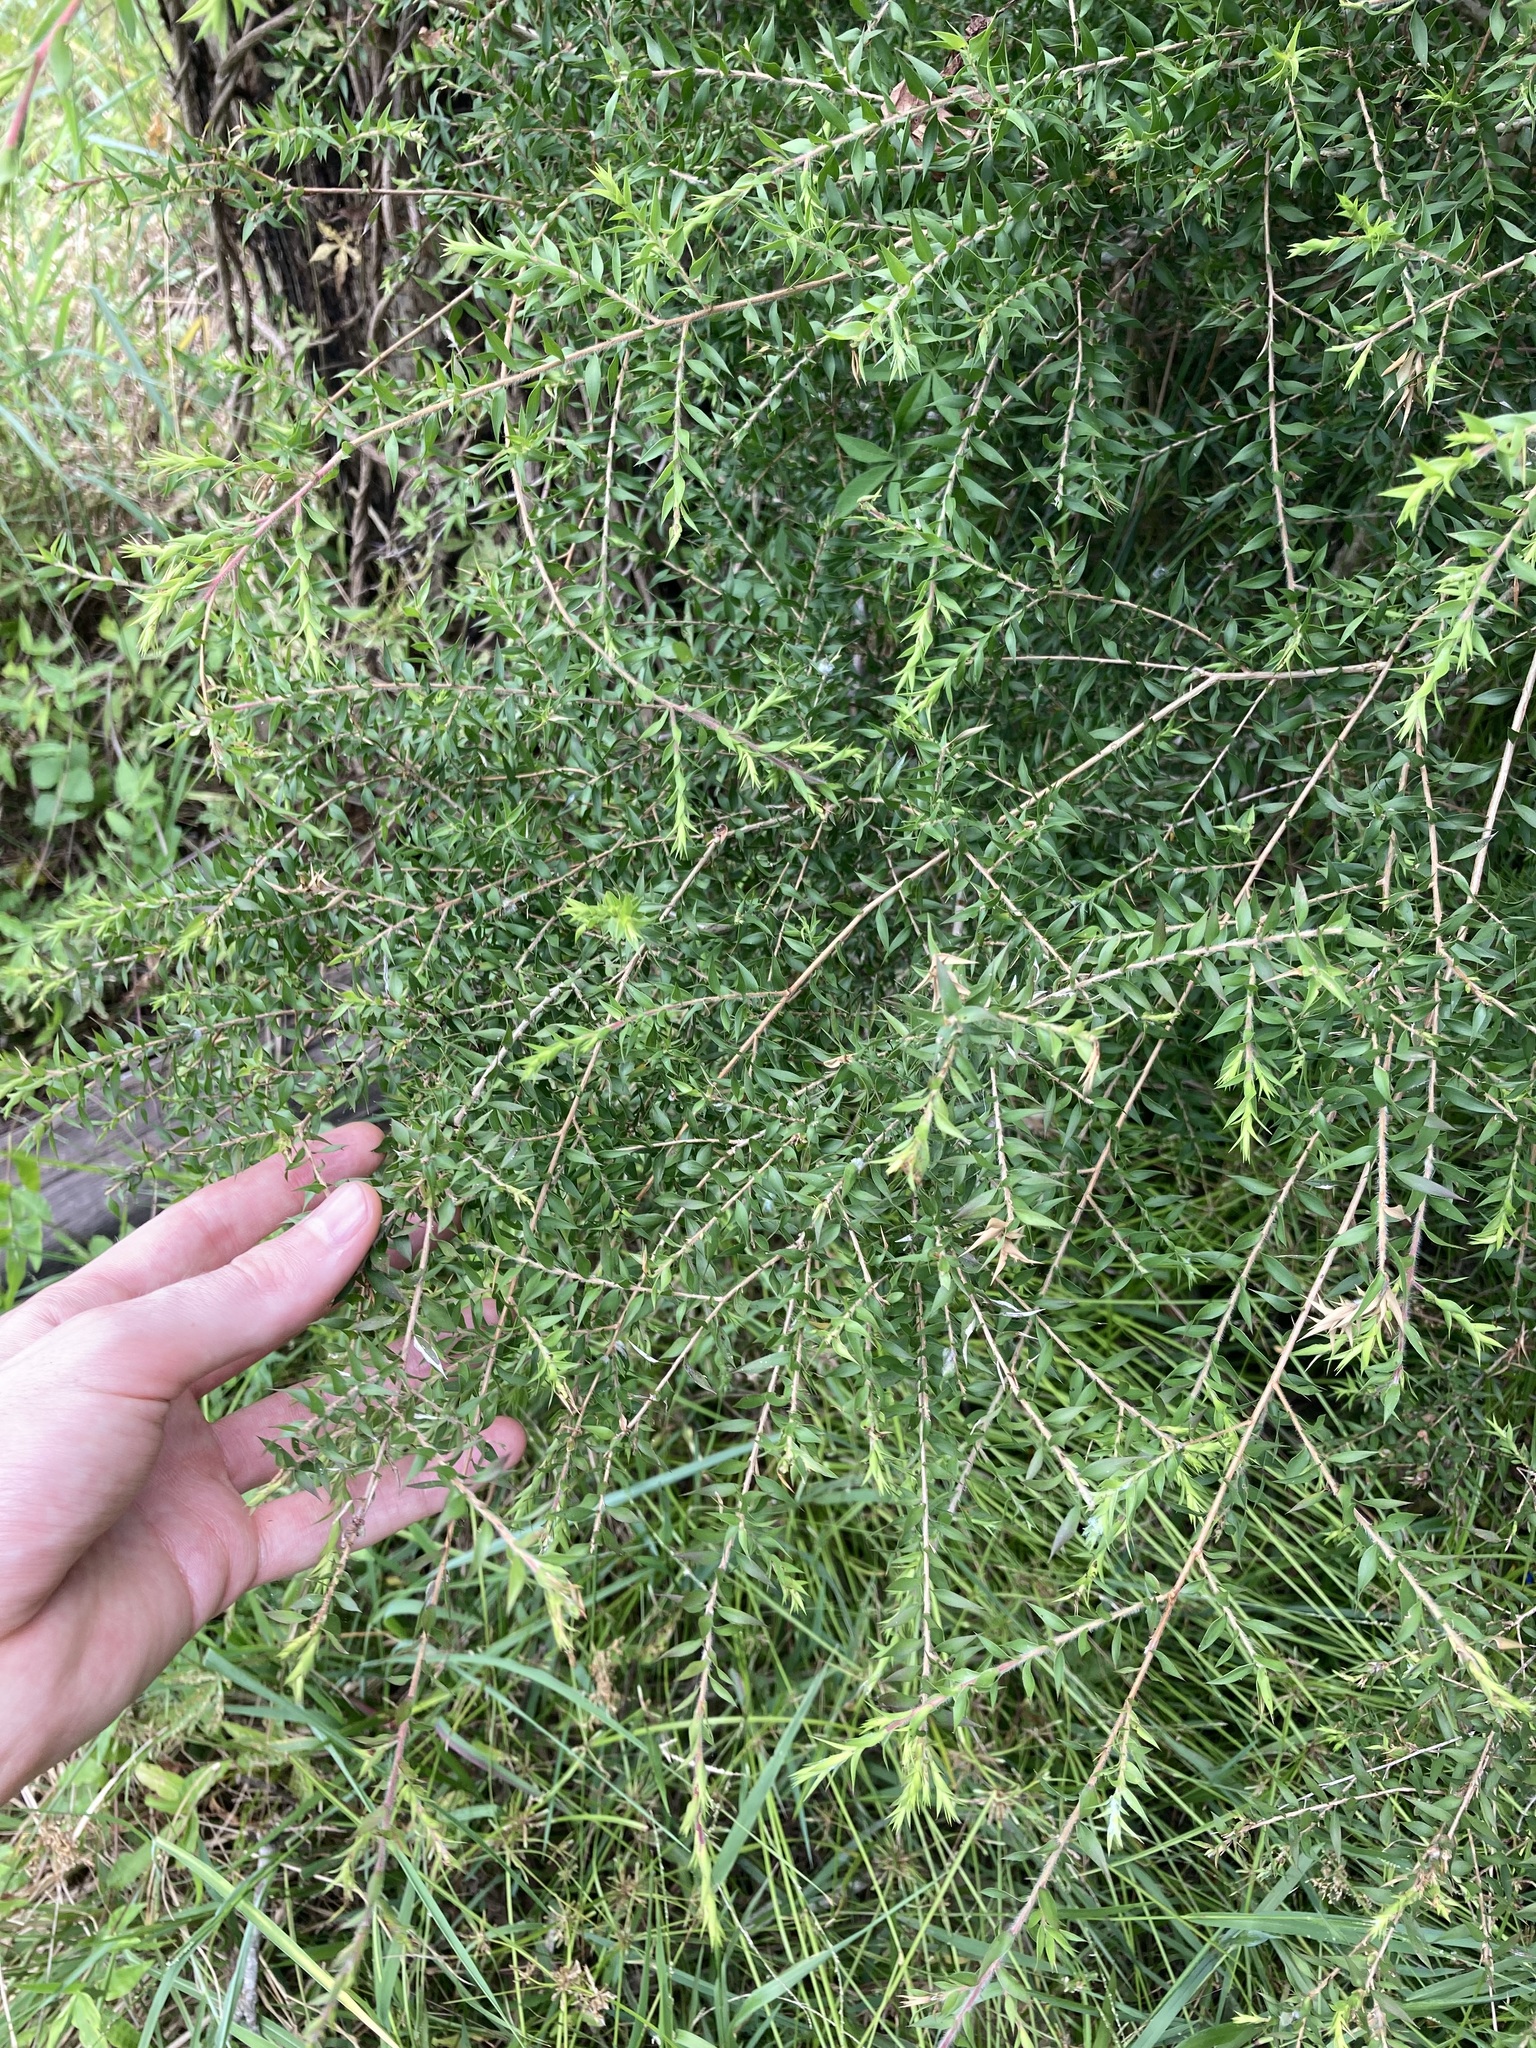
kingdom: Plantae
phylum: Tracheophyta
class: Magnoliopsida
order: Myrtales
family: Myrtaceae
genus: Melaleuca
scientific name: Melaleuca styphelioides
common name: Prickly paperbark
